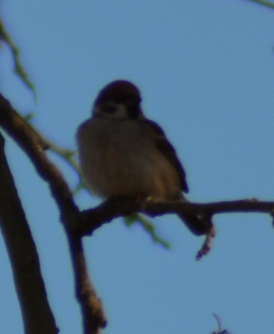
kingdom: Animalia
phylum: Chordata
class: Aves
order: Passeriformes
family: Passeridae
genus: Passer
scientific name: Passer montanus
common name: Eurasian tree sparrow
